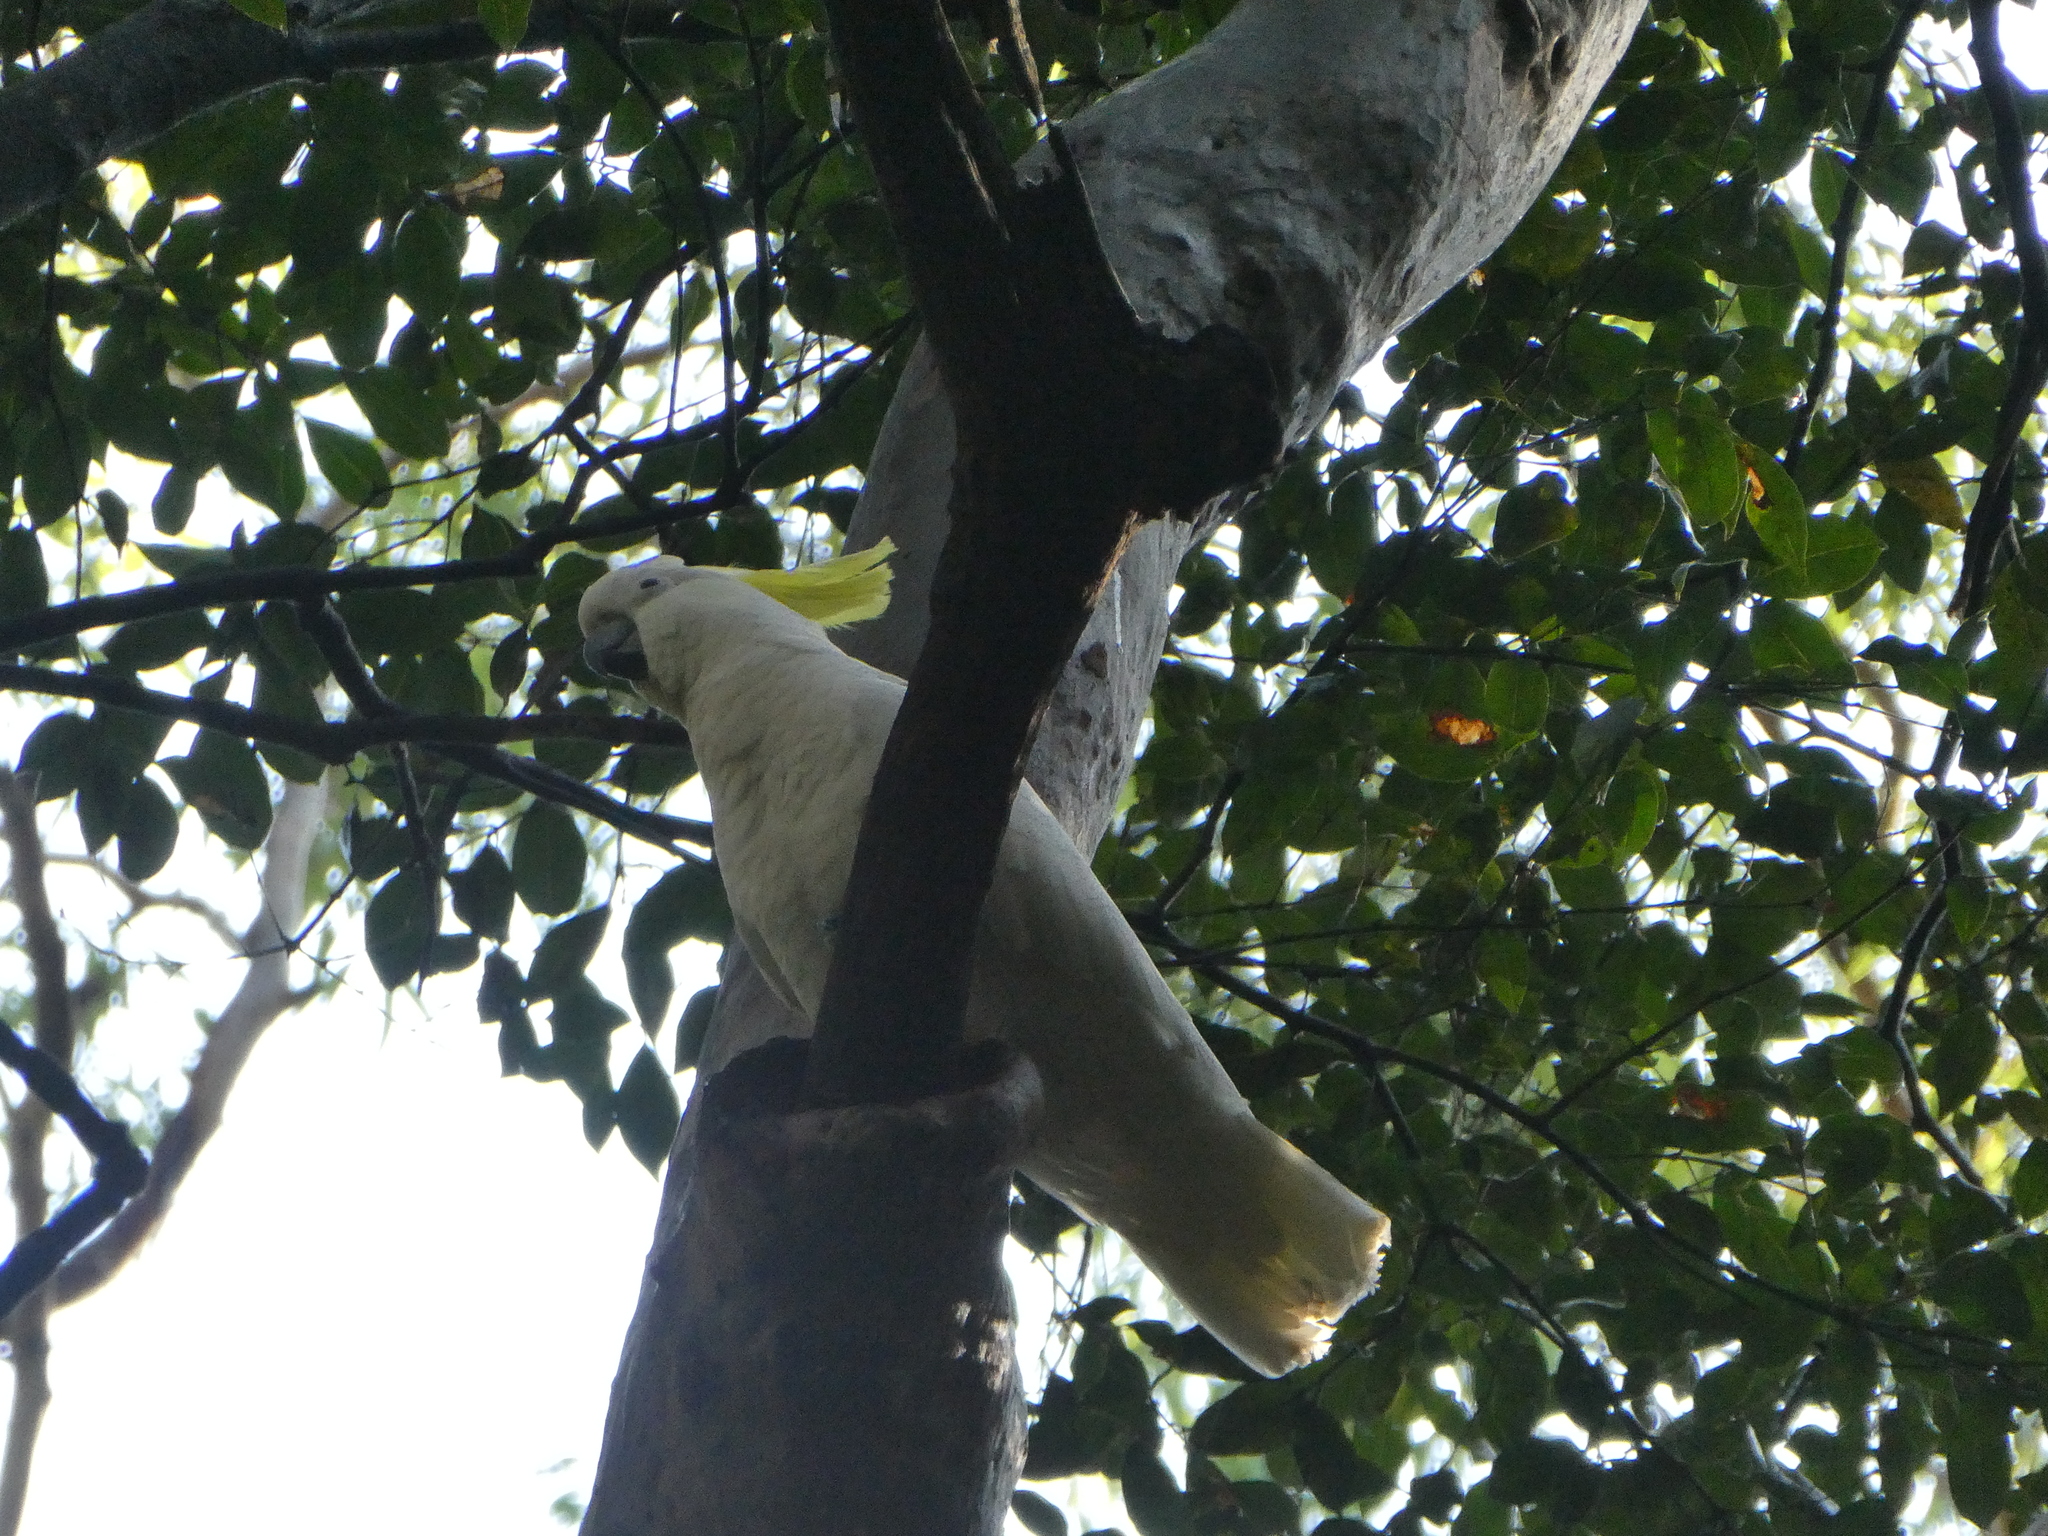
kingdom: Animalia
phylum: Chordata
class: Aves
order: Psittaciformes
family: Psittacidae
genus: Cacatua
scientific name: Cacatua galerita
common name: Sulphur-crested cockatoo
